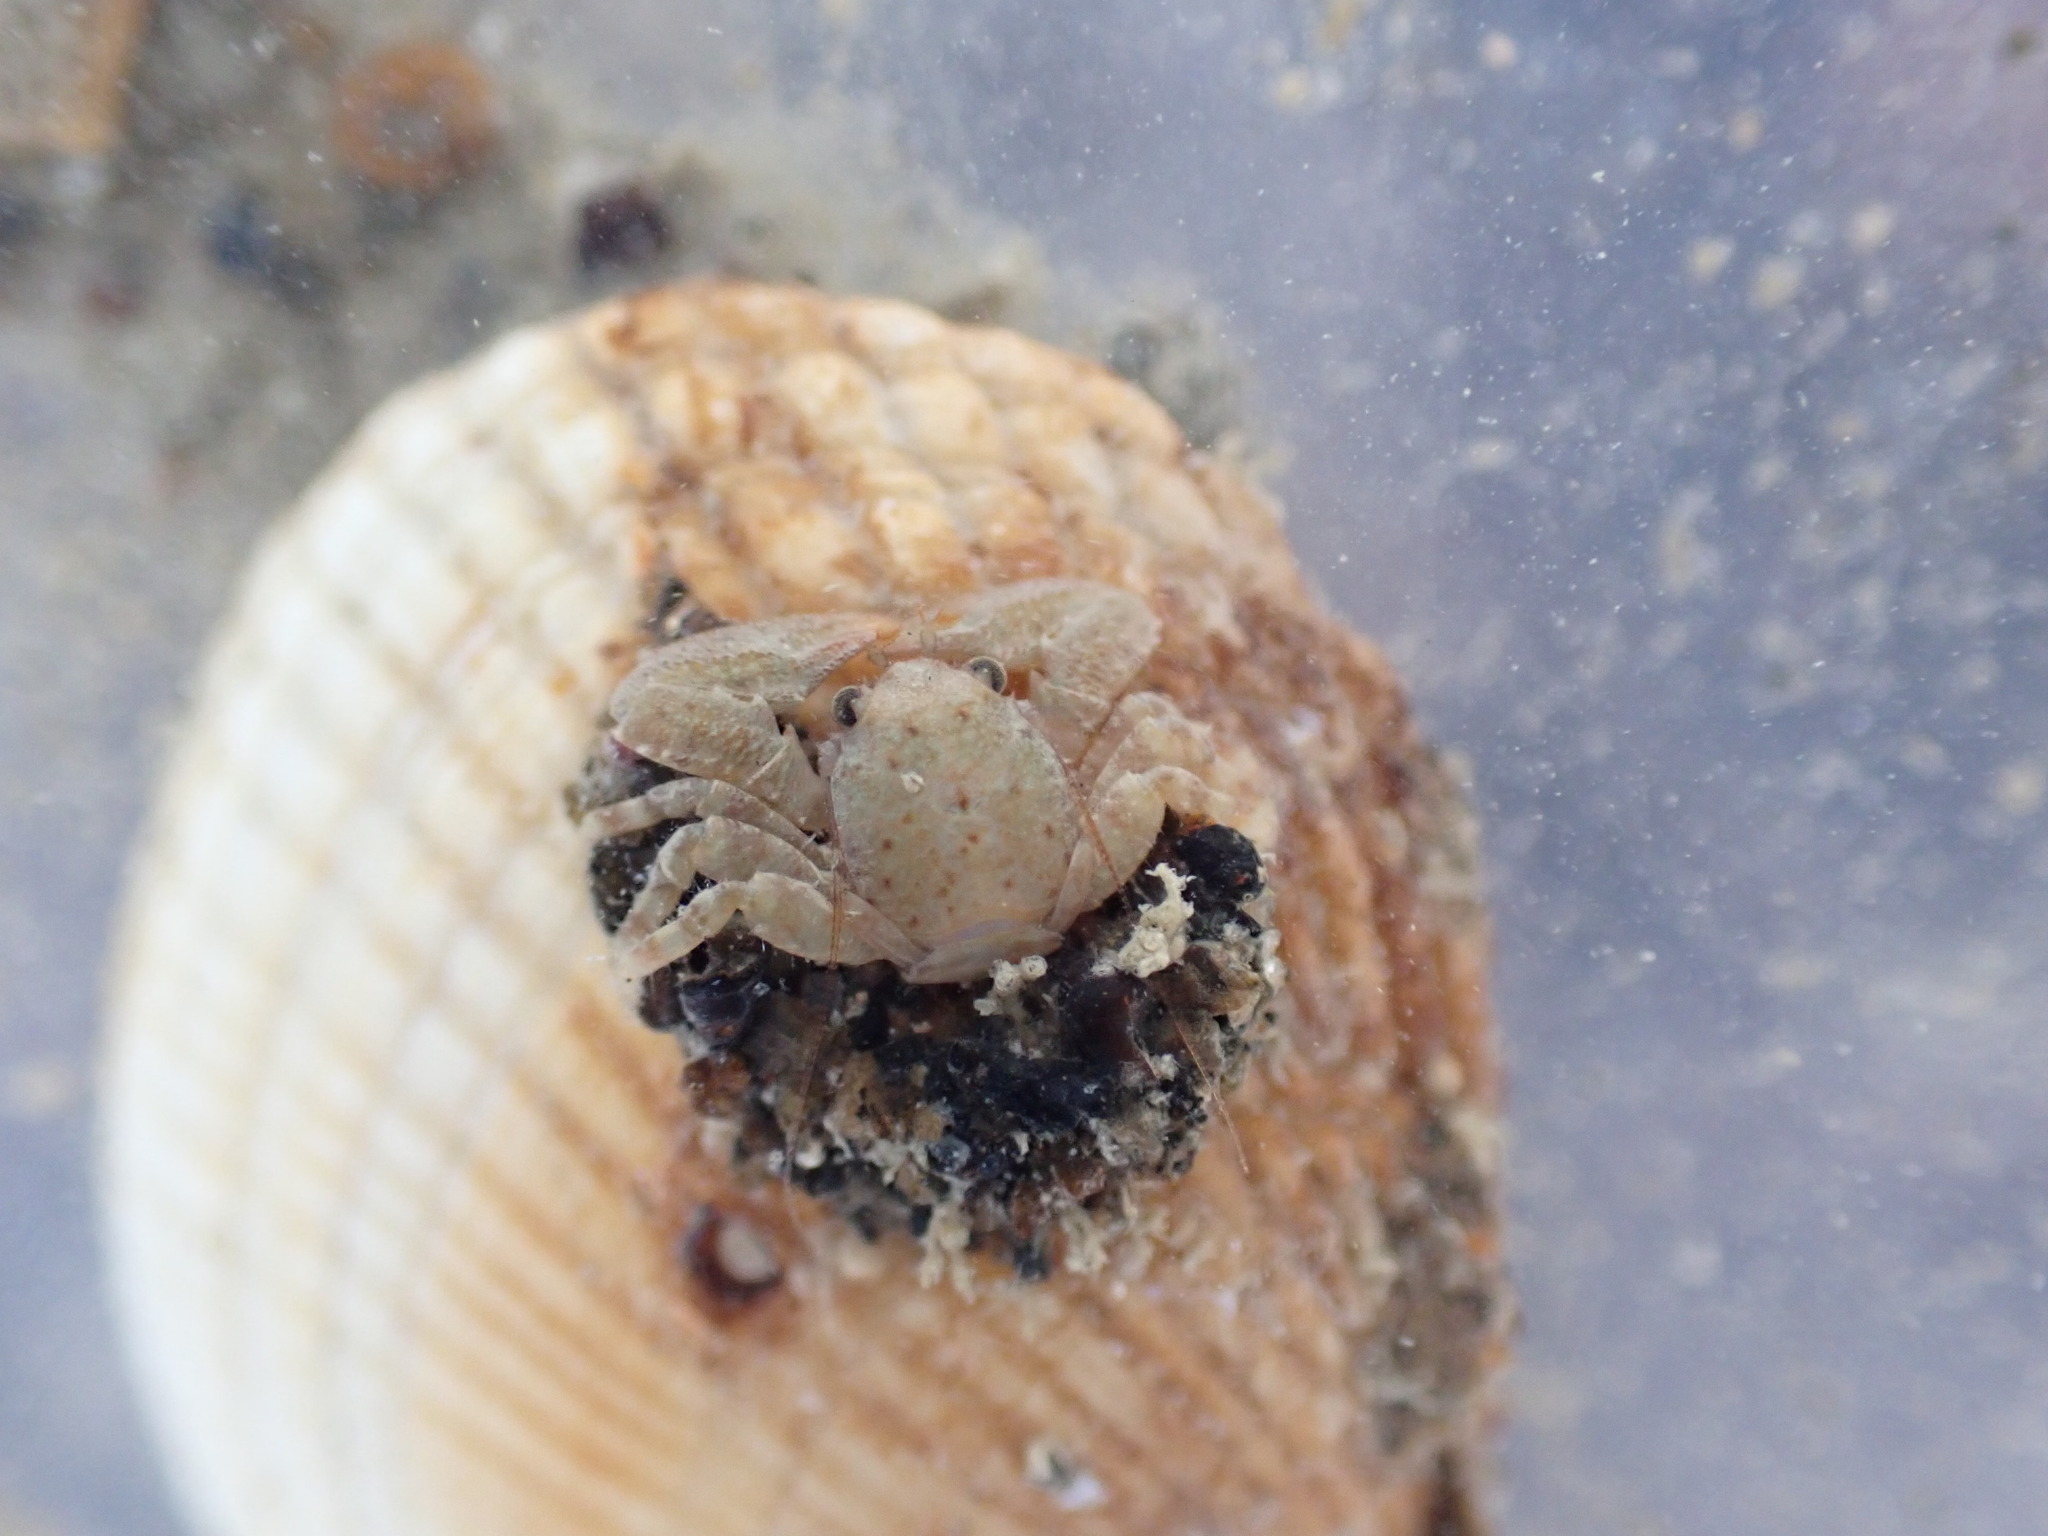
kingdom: Animalia
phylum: Arthropoda
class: Malacostraca
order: Decapoda
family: Porcellanidae
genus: Petrocheles
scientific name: Petrocheles spinosus
